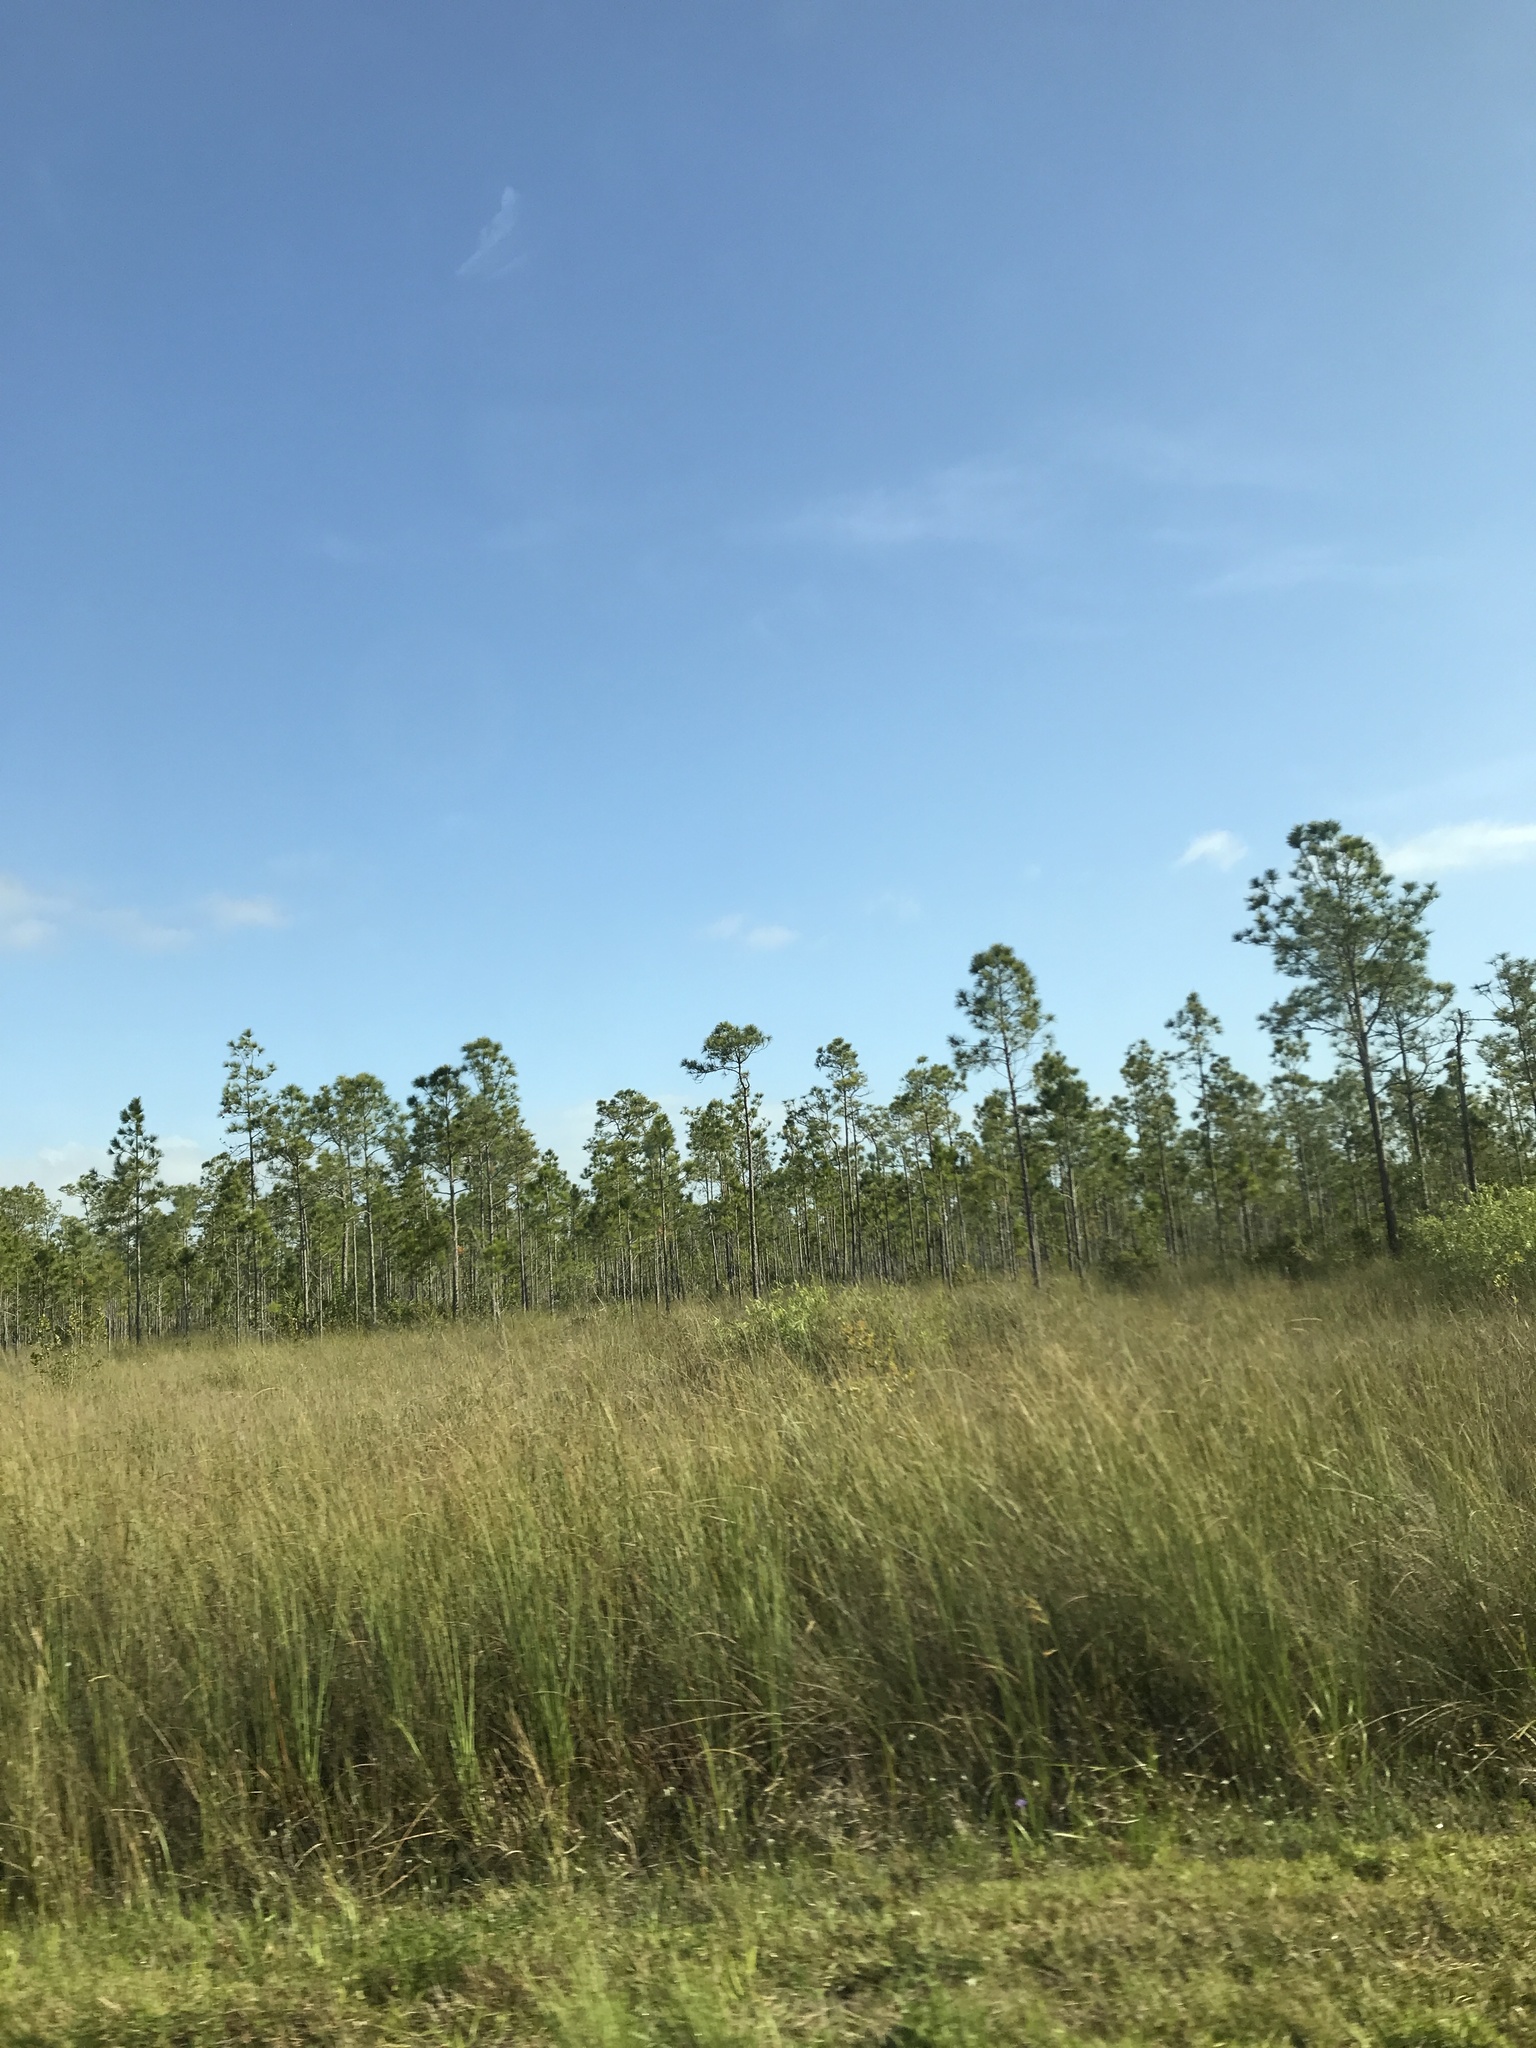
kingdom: Plantae
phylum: Tracheophyta
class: Pinopsida
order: Pinales
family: Pinaceae
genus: Pinus
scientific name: Pinus elliottii
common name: Slash pine
